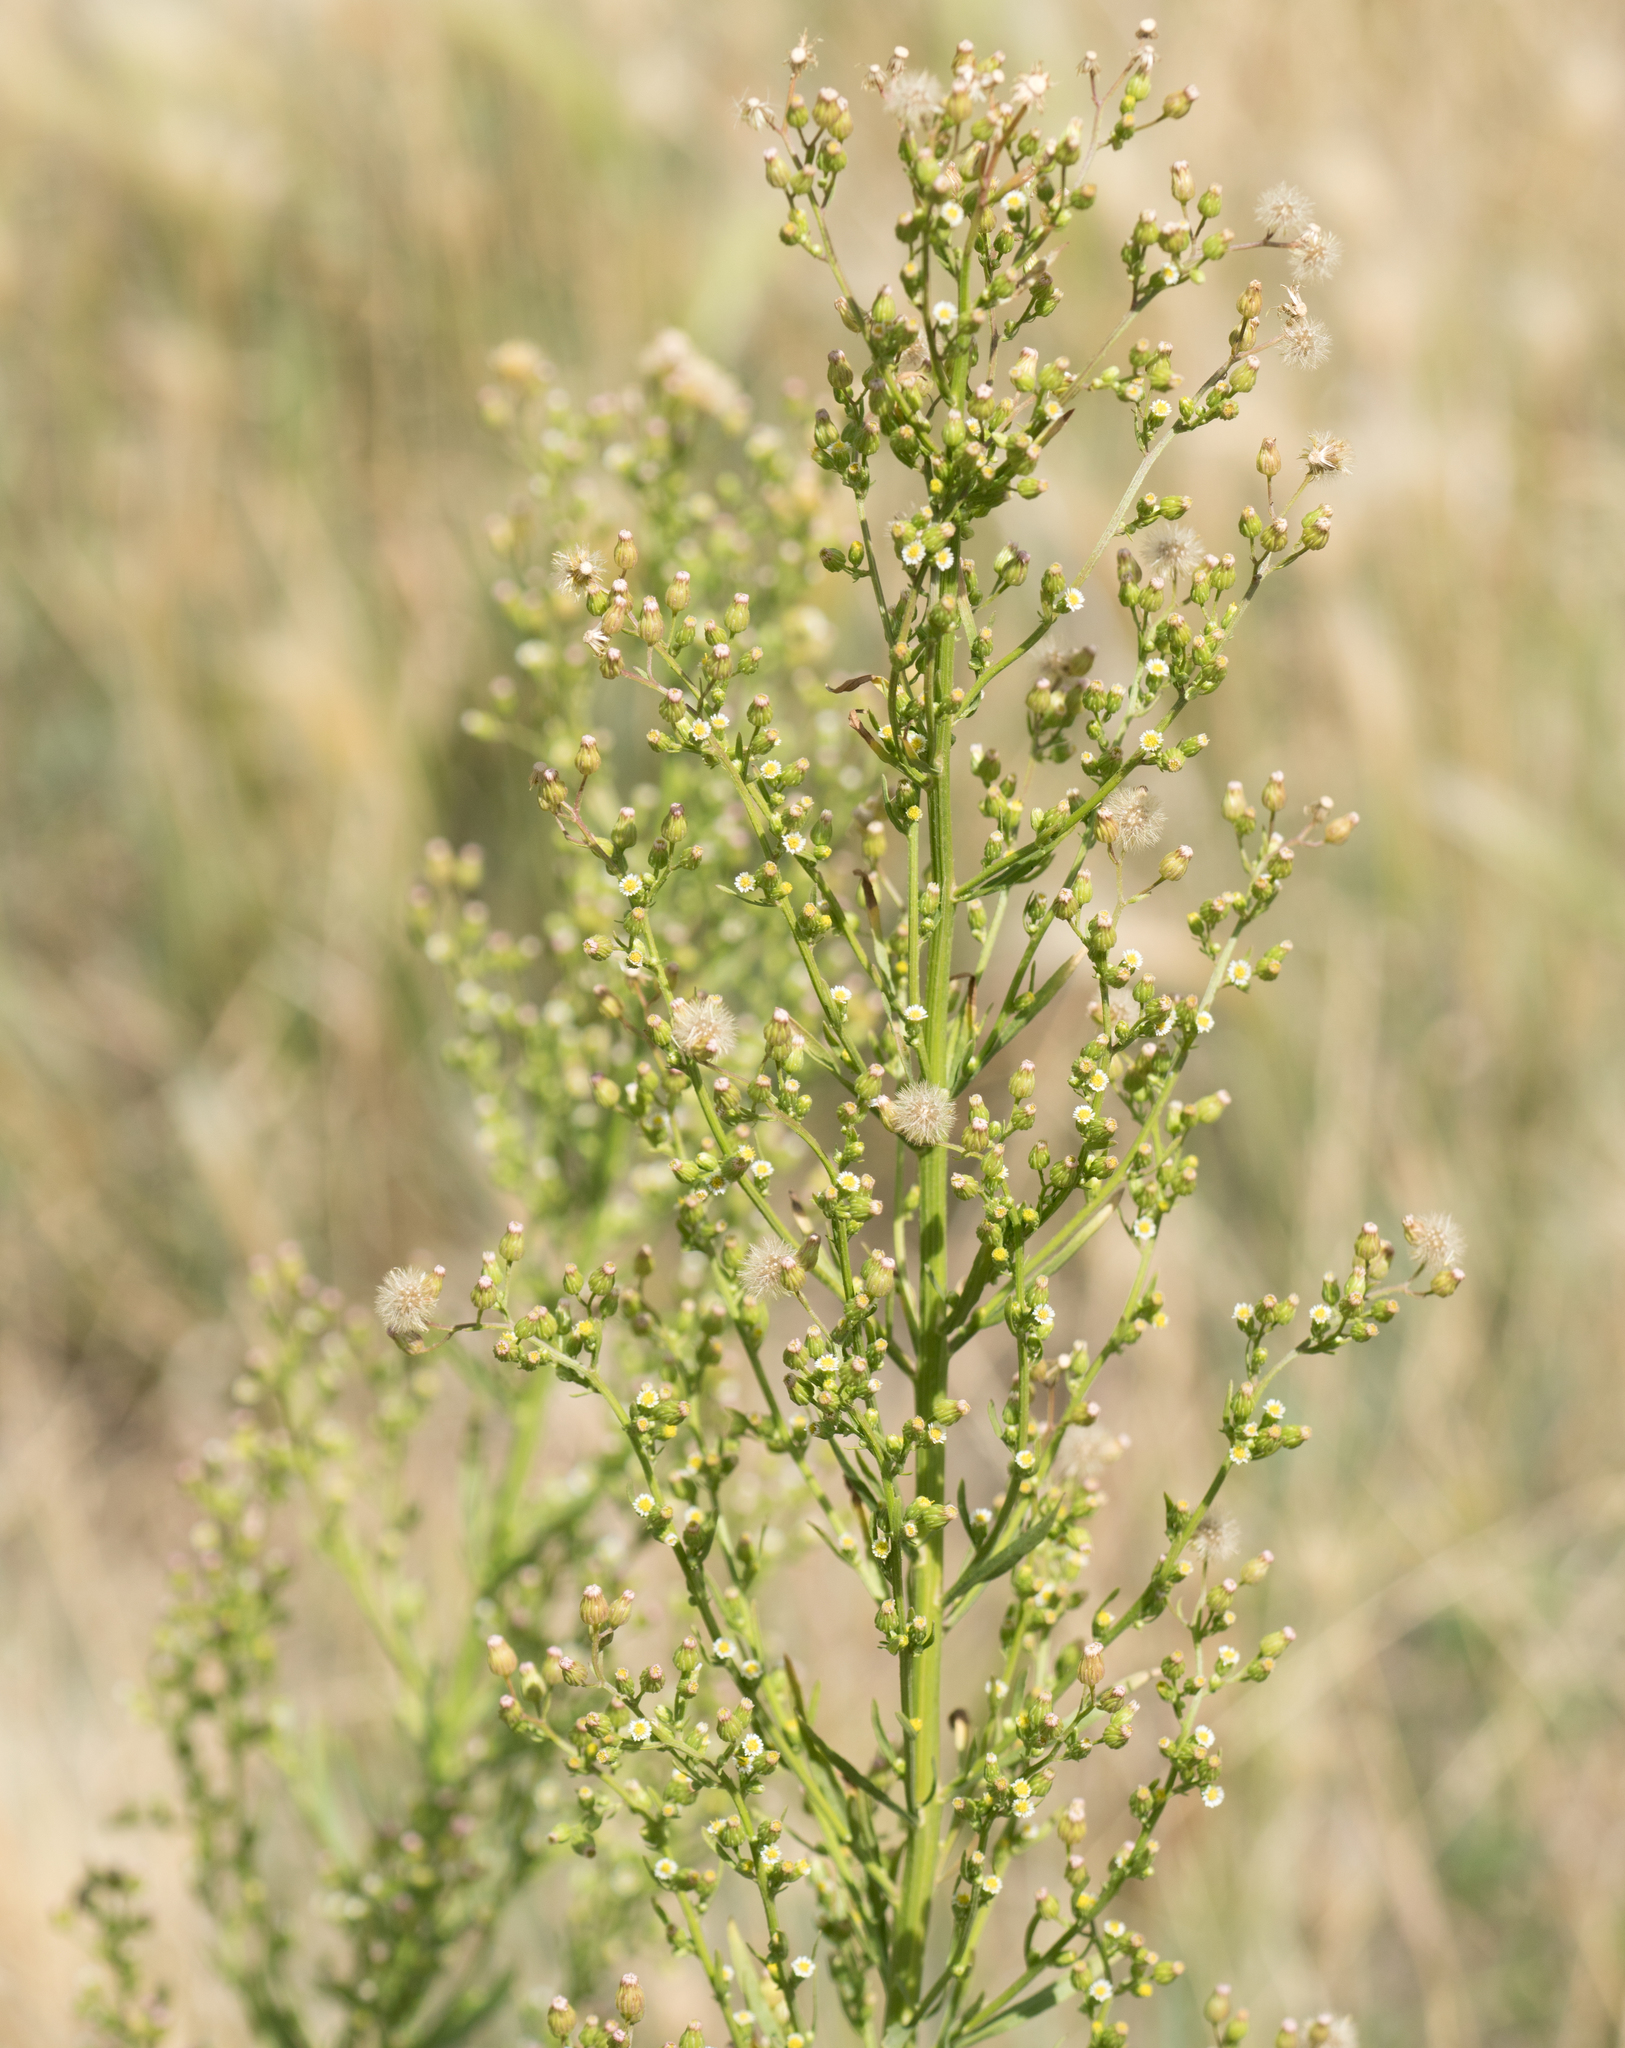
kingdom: Plantae
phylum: Tracheophyta
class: Magnoliopsida
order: Asterales
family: Asteraceae
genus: Erigeron
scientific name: Erigeron canadensis
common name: Canadian fleabane
